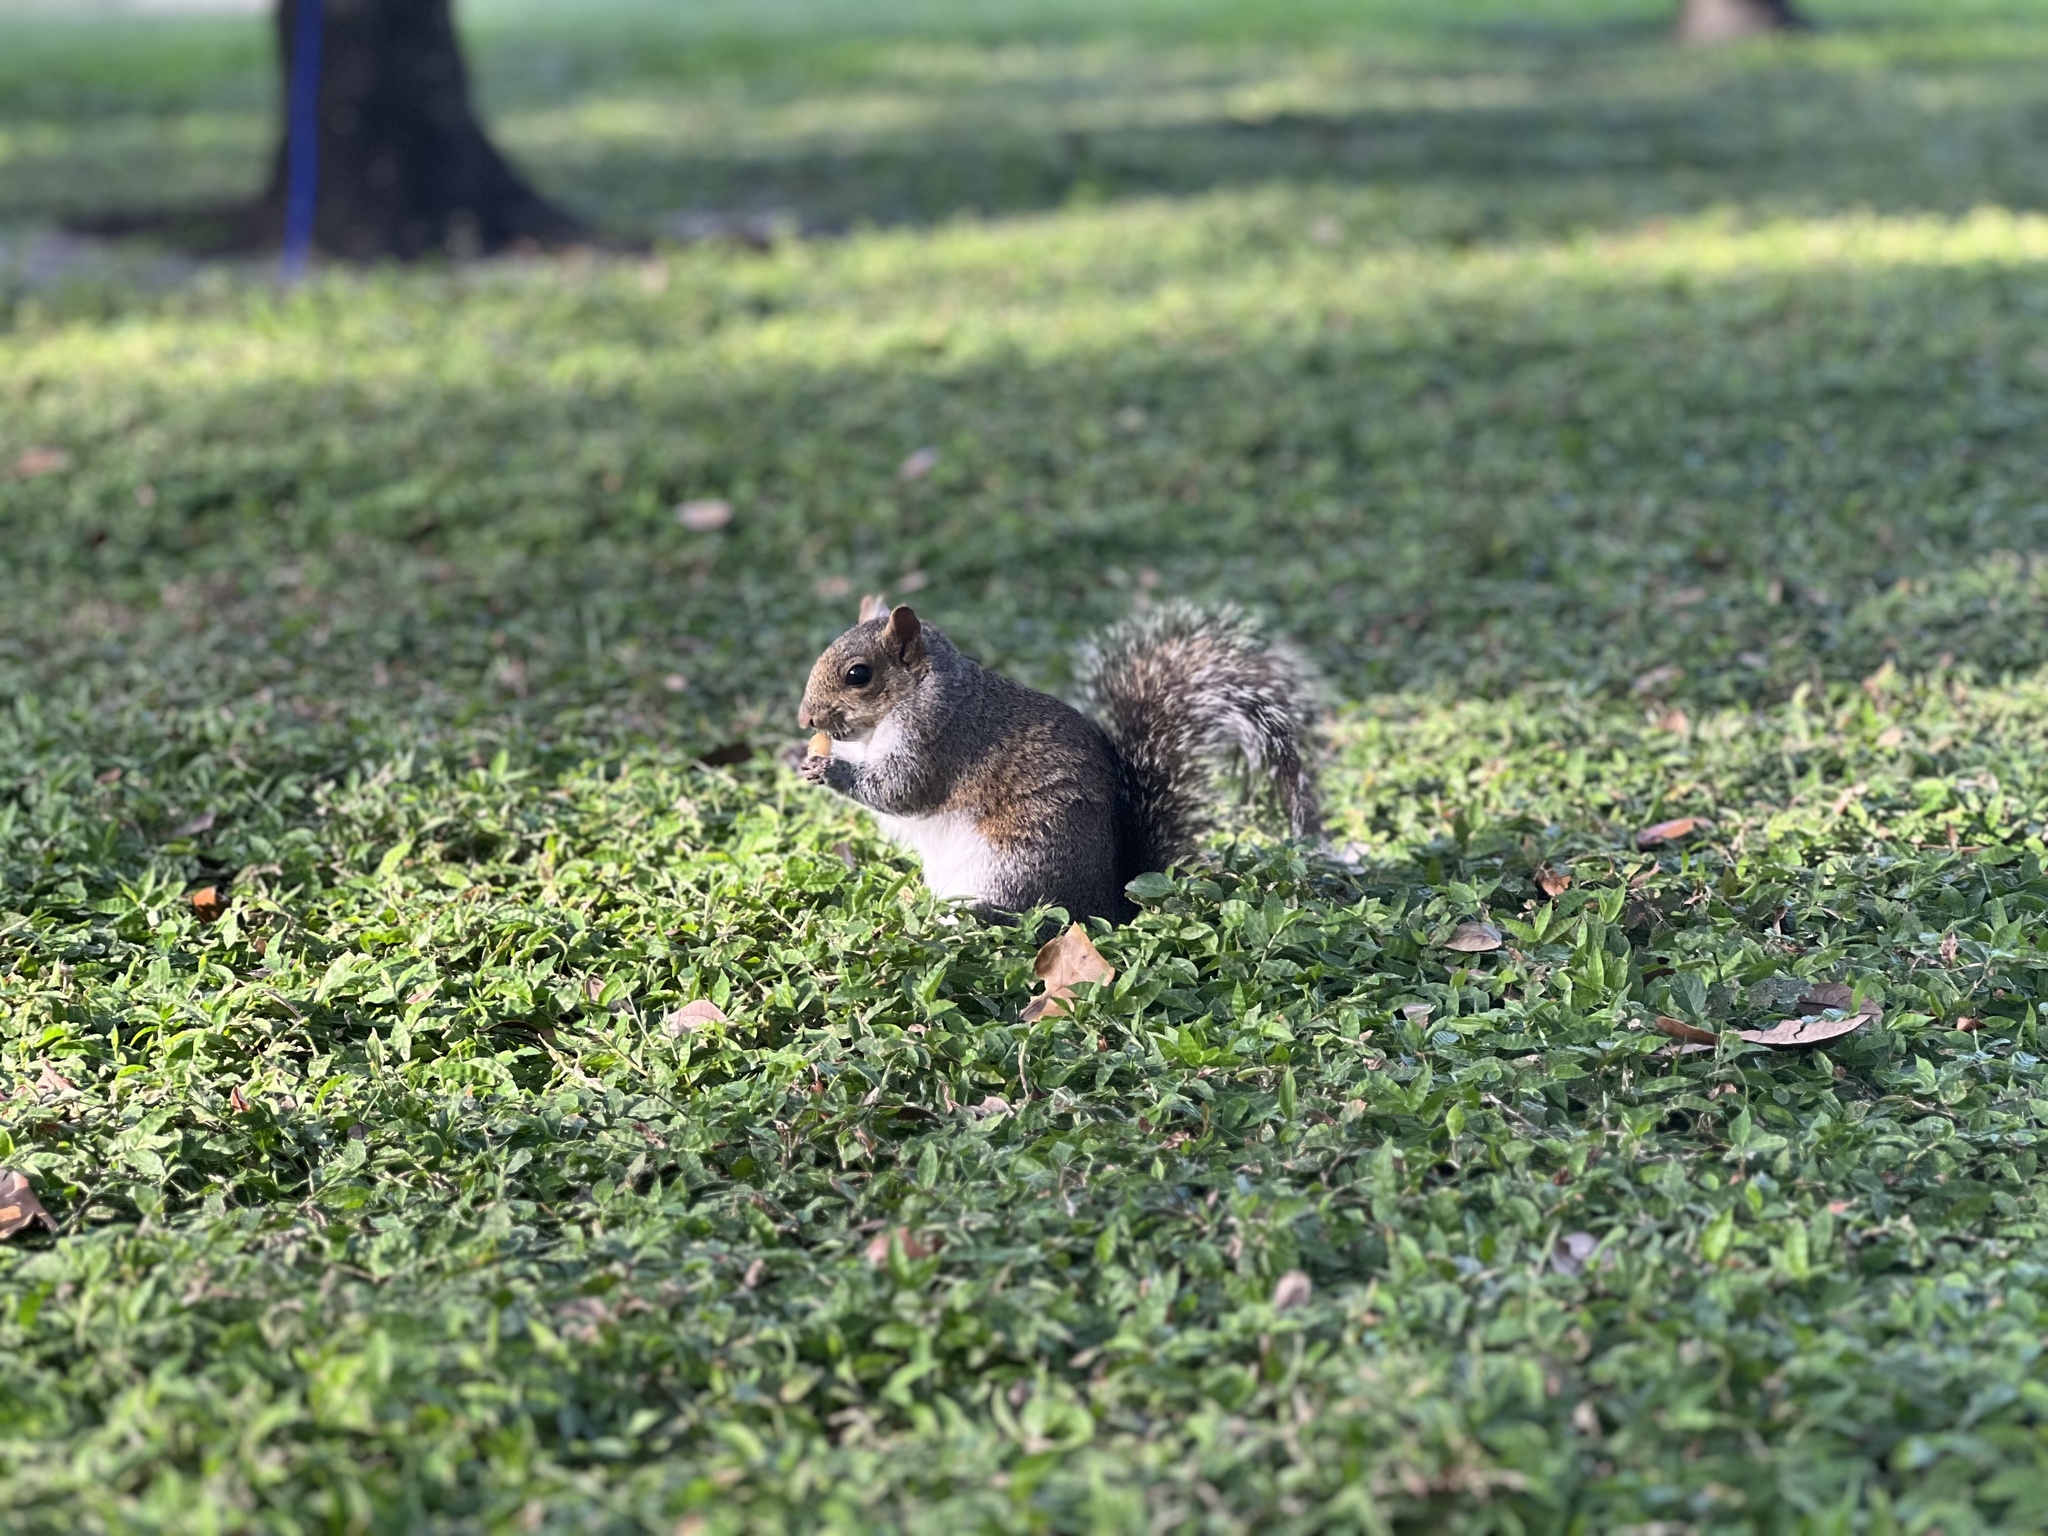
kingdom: Animalia
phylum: Chordata
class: Mammalia
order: Rodentia
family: Sciuridae
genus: Sciurus
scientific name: Sciurus carolinensis
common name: Eastern gray squirrel
